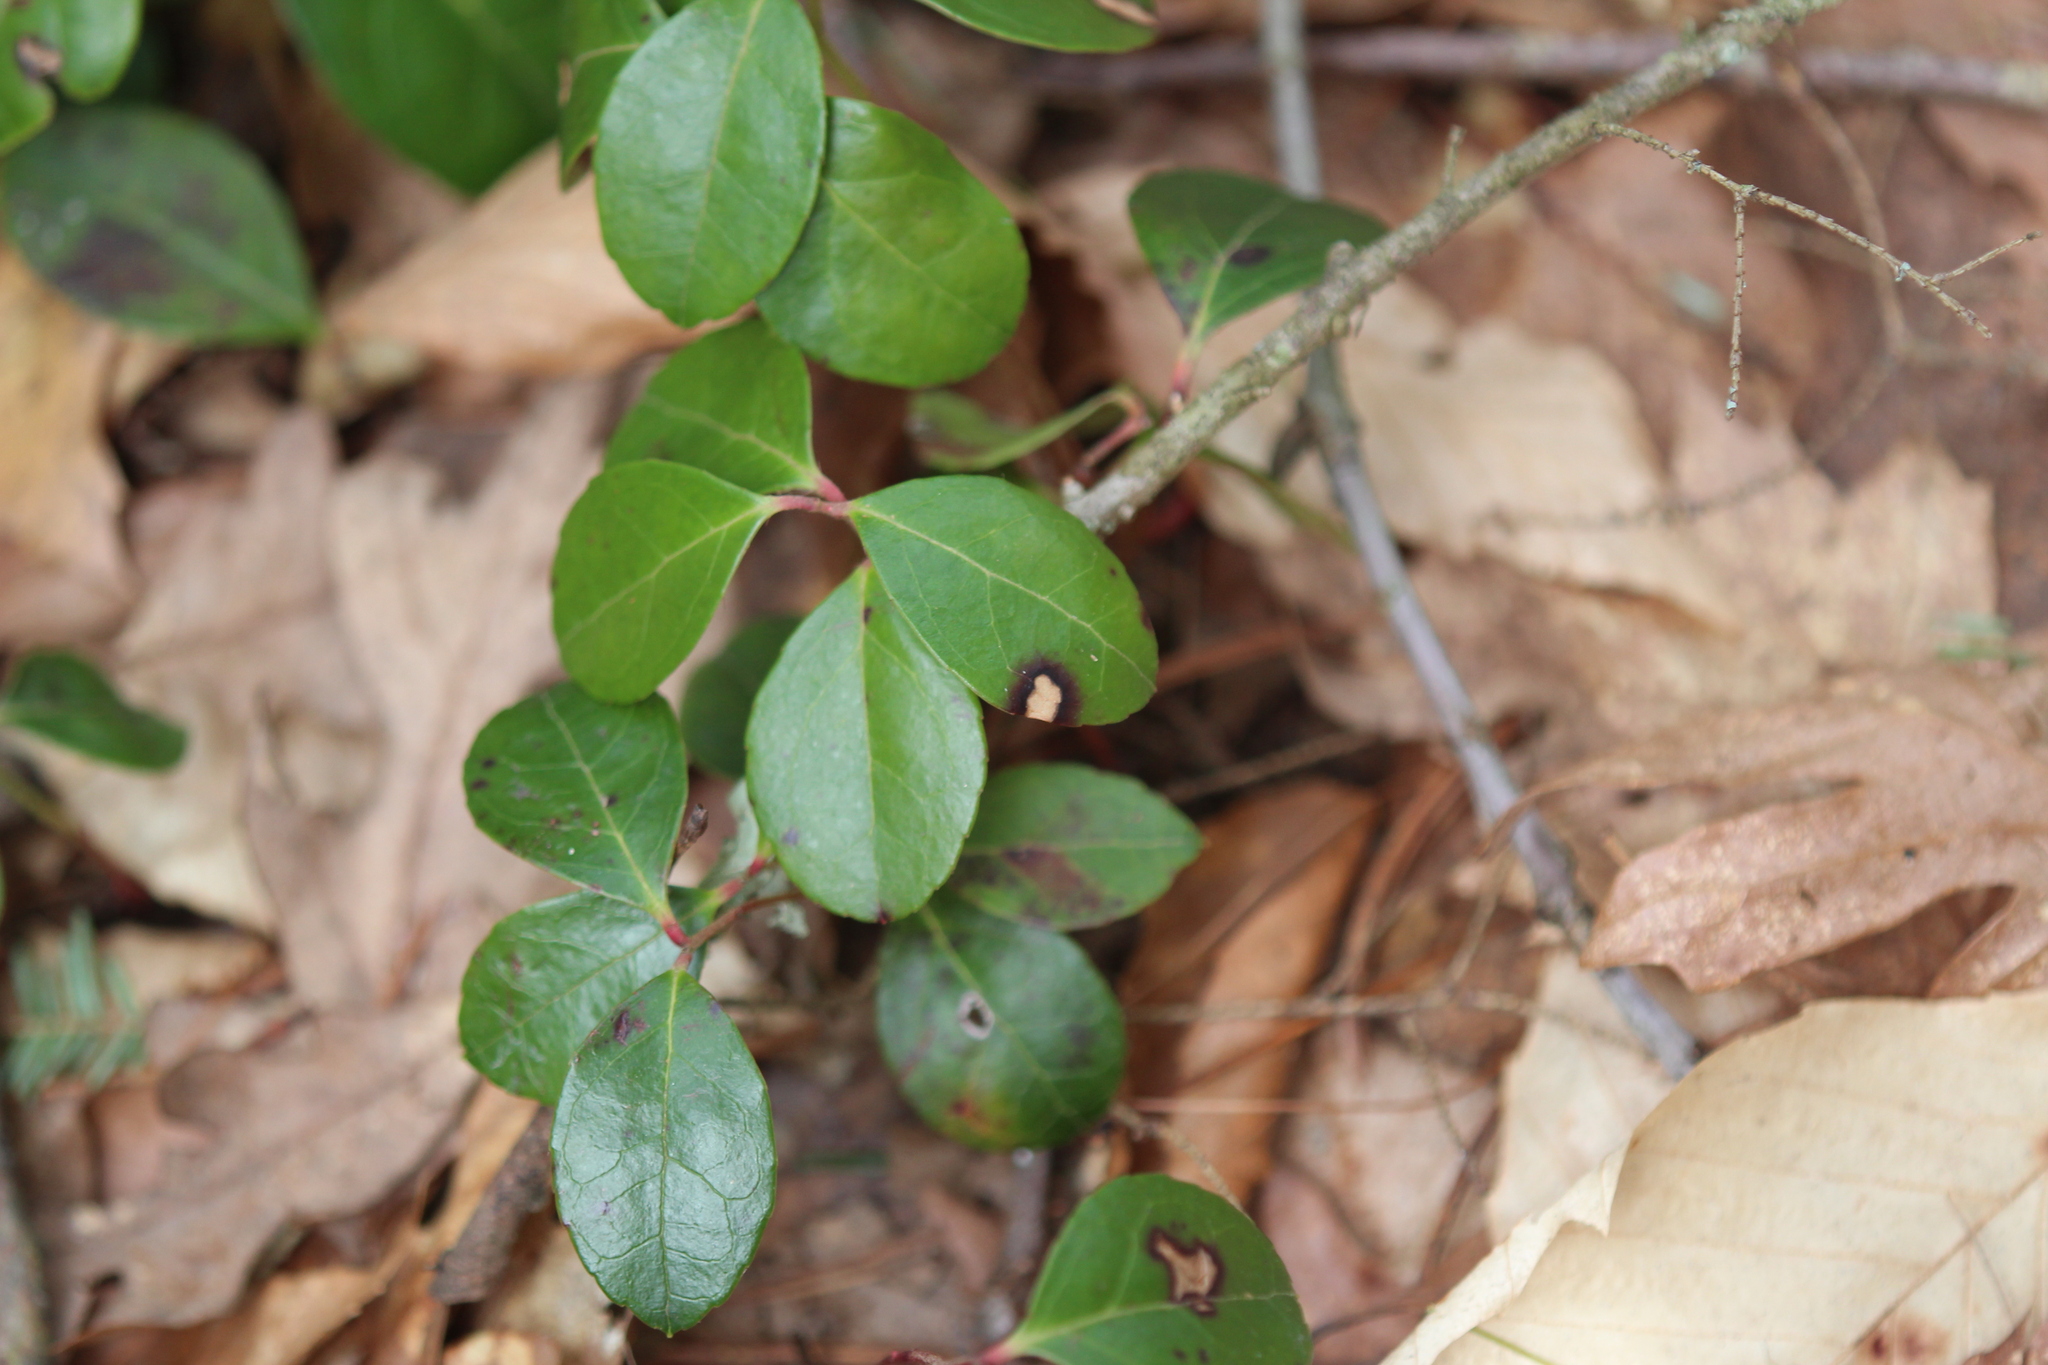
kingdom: Plantae
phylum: Tracheophyta
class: Magnoliopsida
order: Ericales
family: Ericaceae
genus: Gaultheria
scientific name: Gaultheria procumbens
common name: Checkerberry
